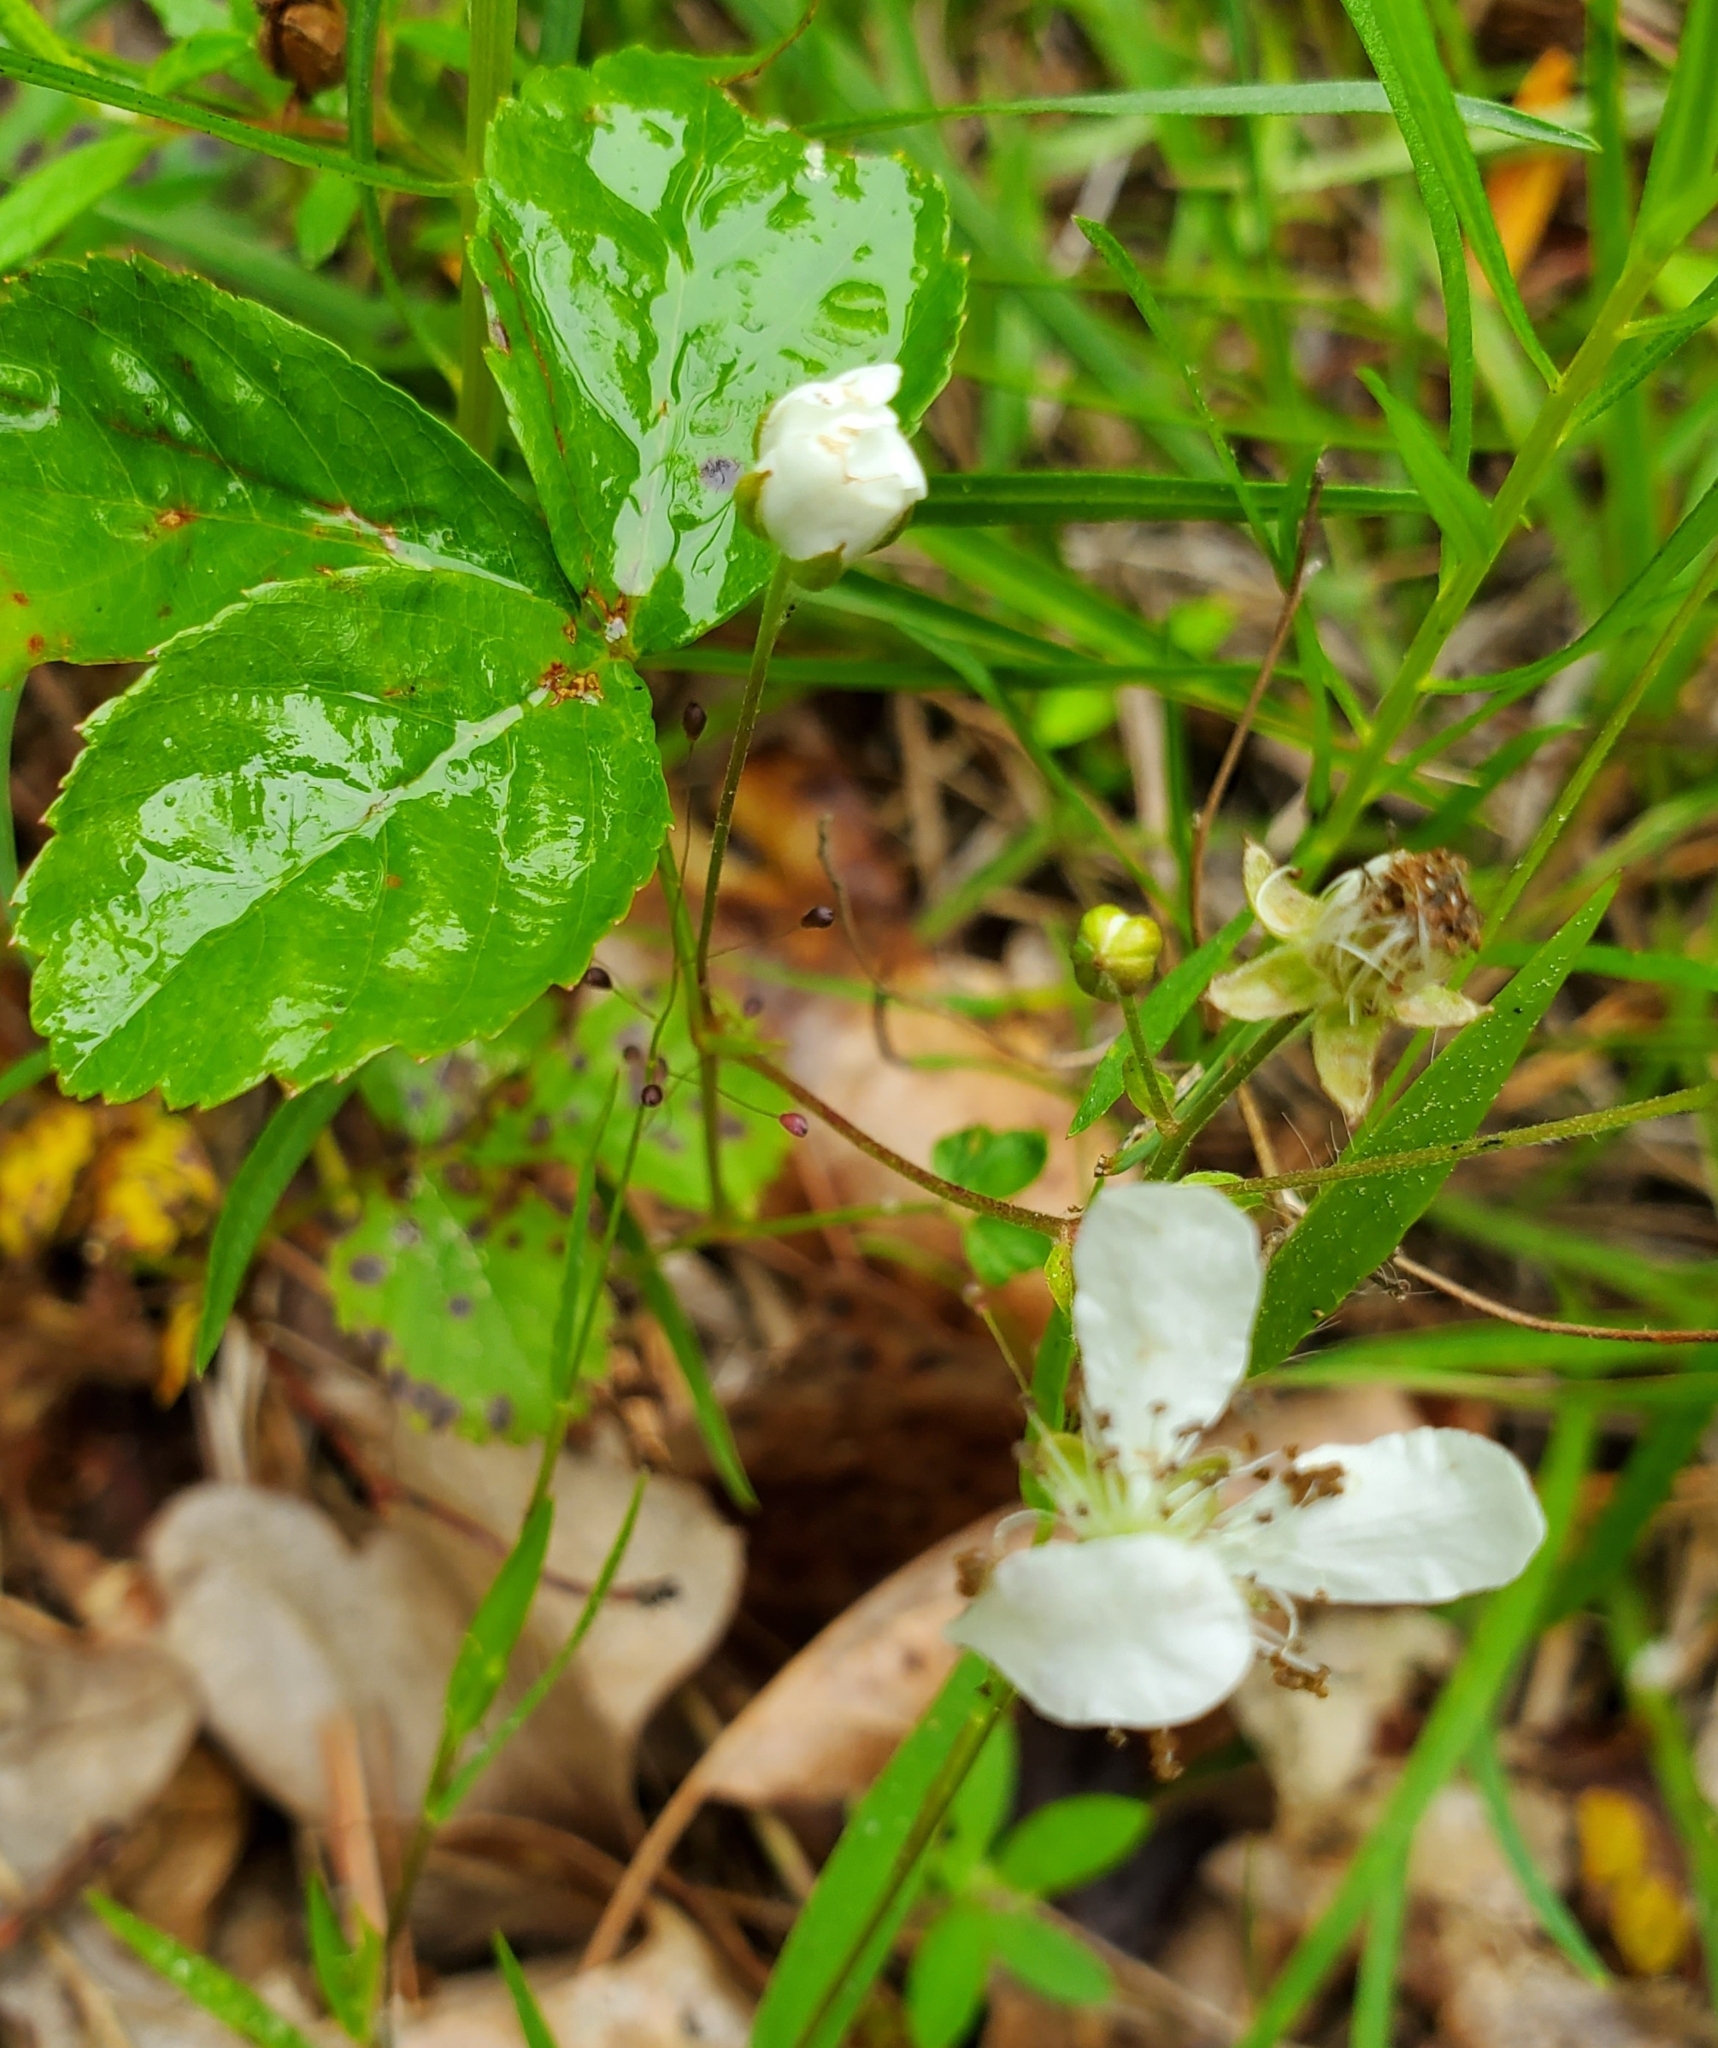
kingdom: Plantae
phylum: Tracheophyta
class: Magnoliopsida
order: Rosales
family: Rosaceae
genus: Rubus
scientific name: Rubus flagellaris
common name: American dewberry
